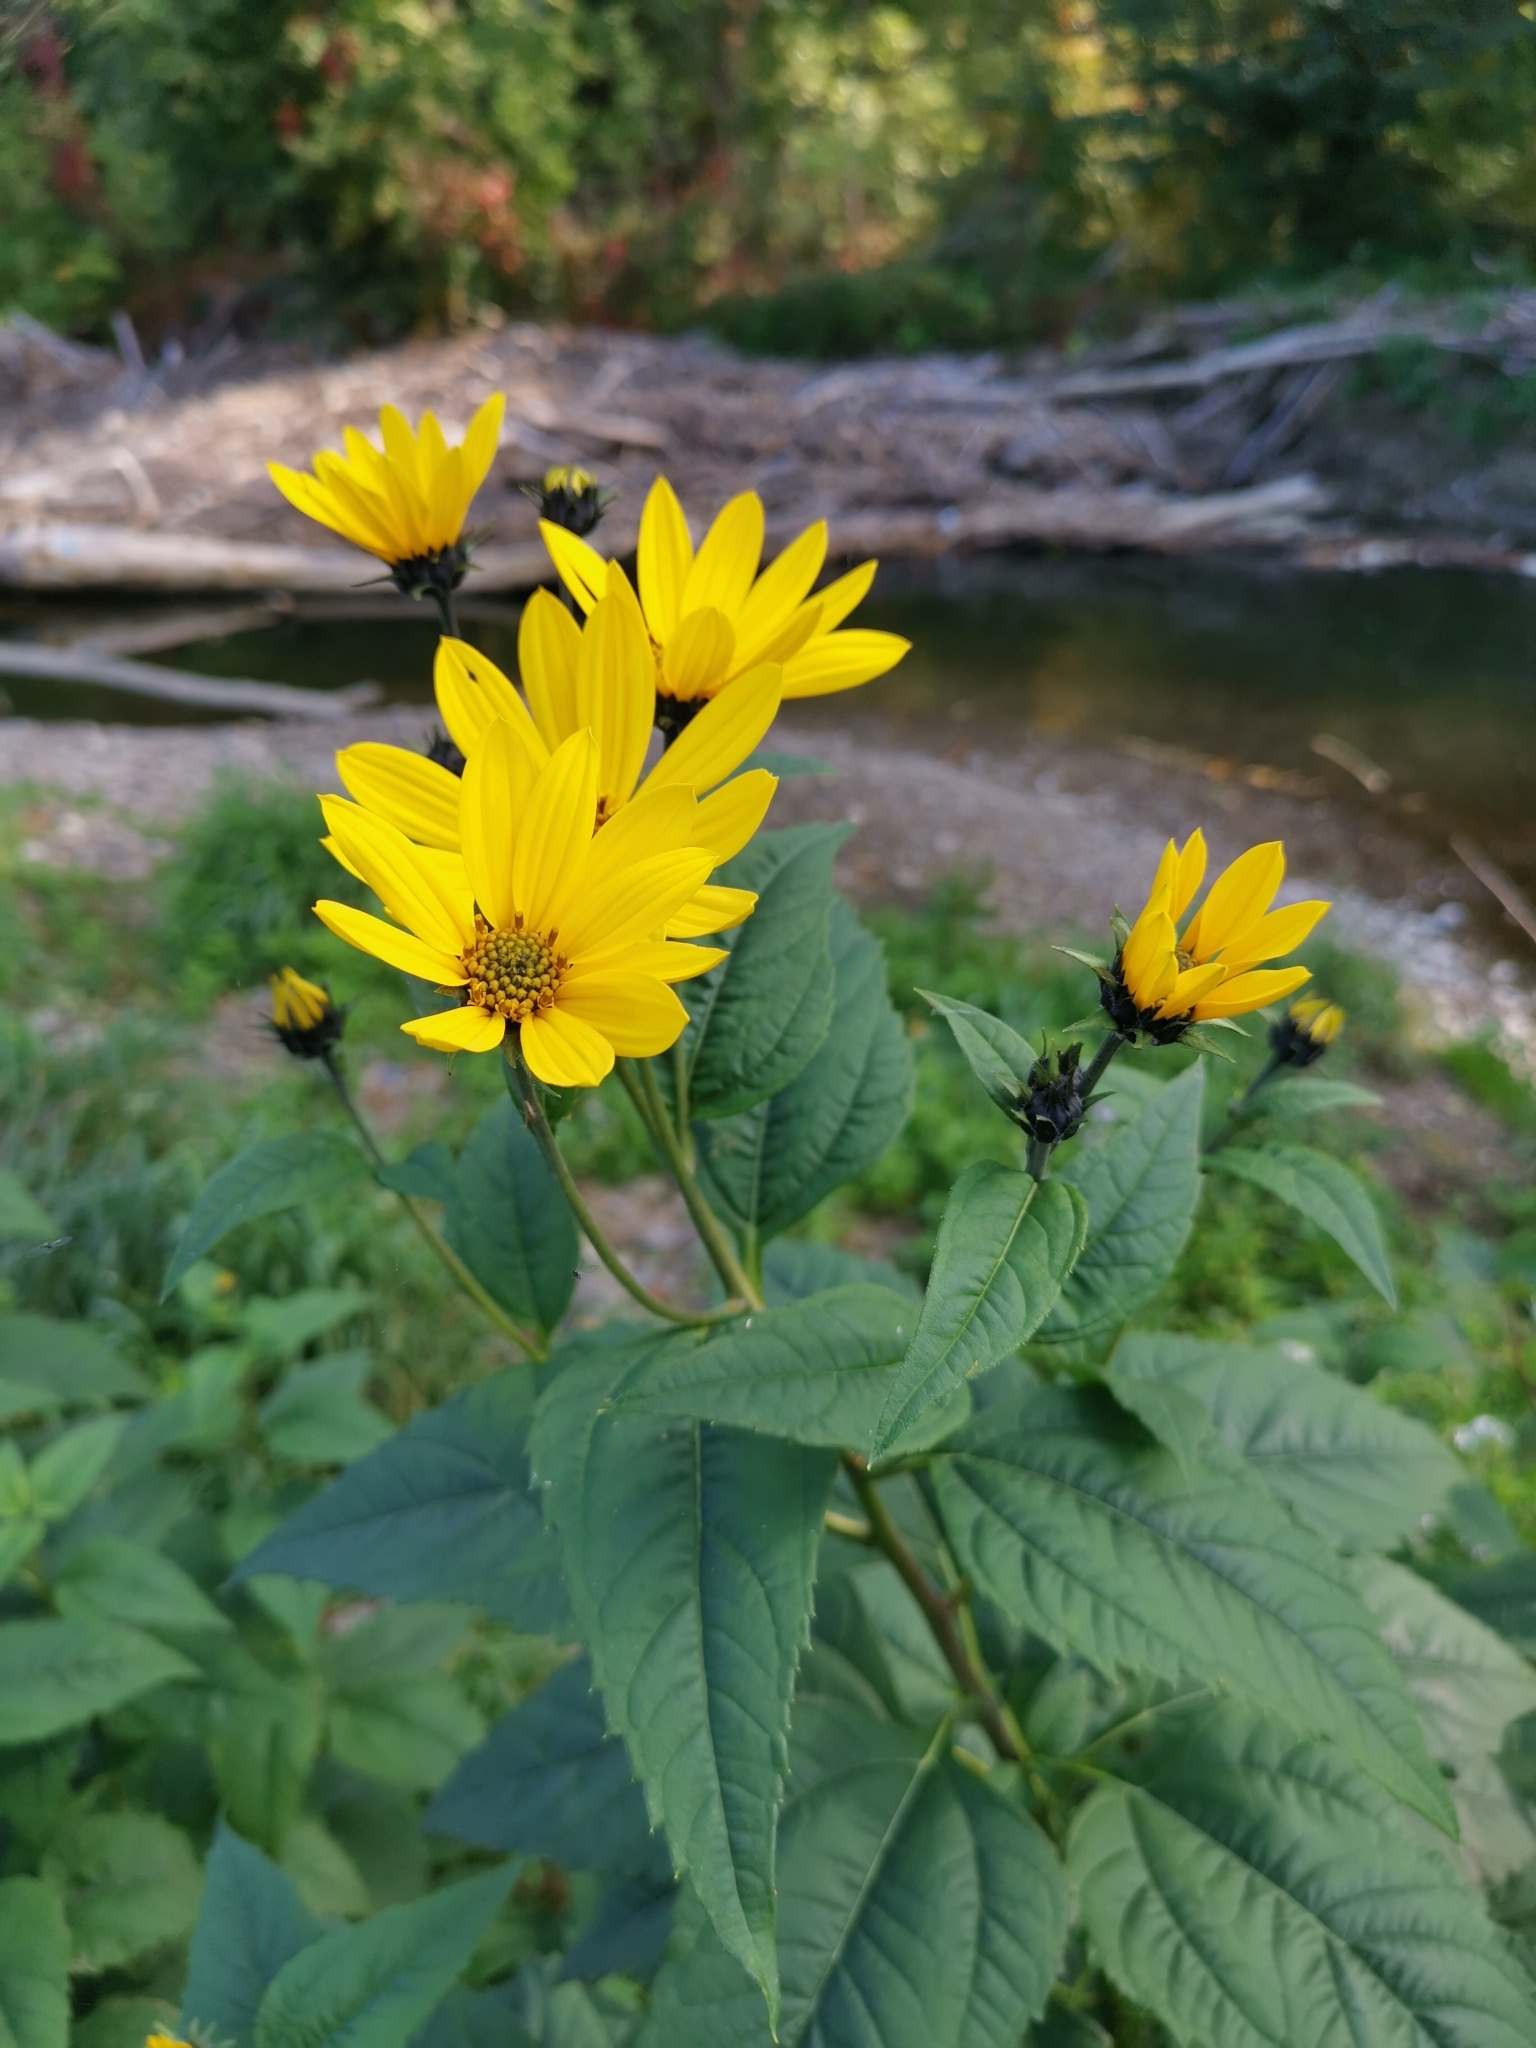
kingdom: Plantae
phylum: Tracheophyta
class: Magnoliopsida
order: Asterales
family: Asteraceae
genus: Helianthus
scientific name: Helianthus tuberosus
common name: Jerusalem artichoke
